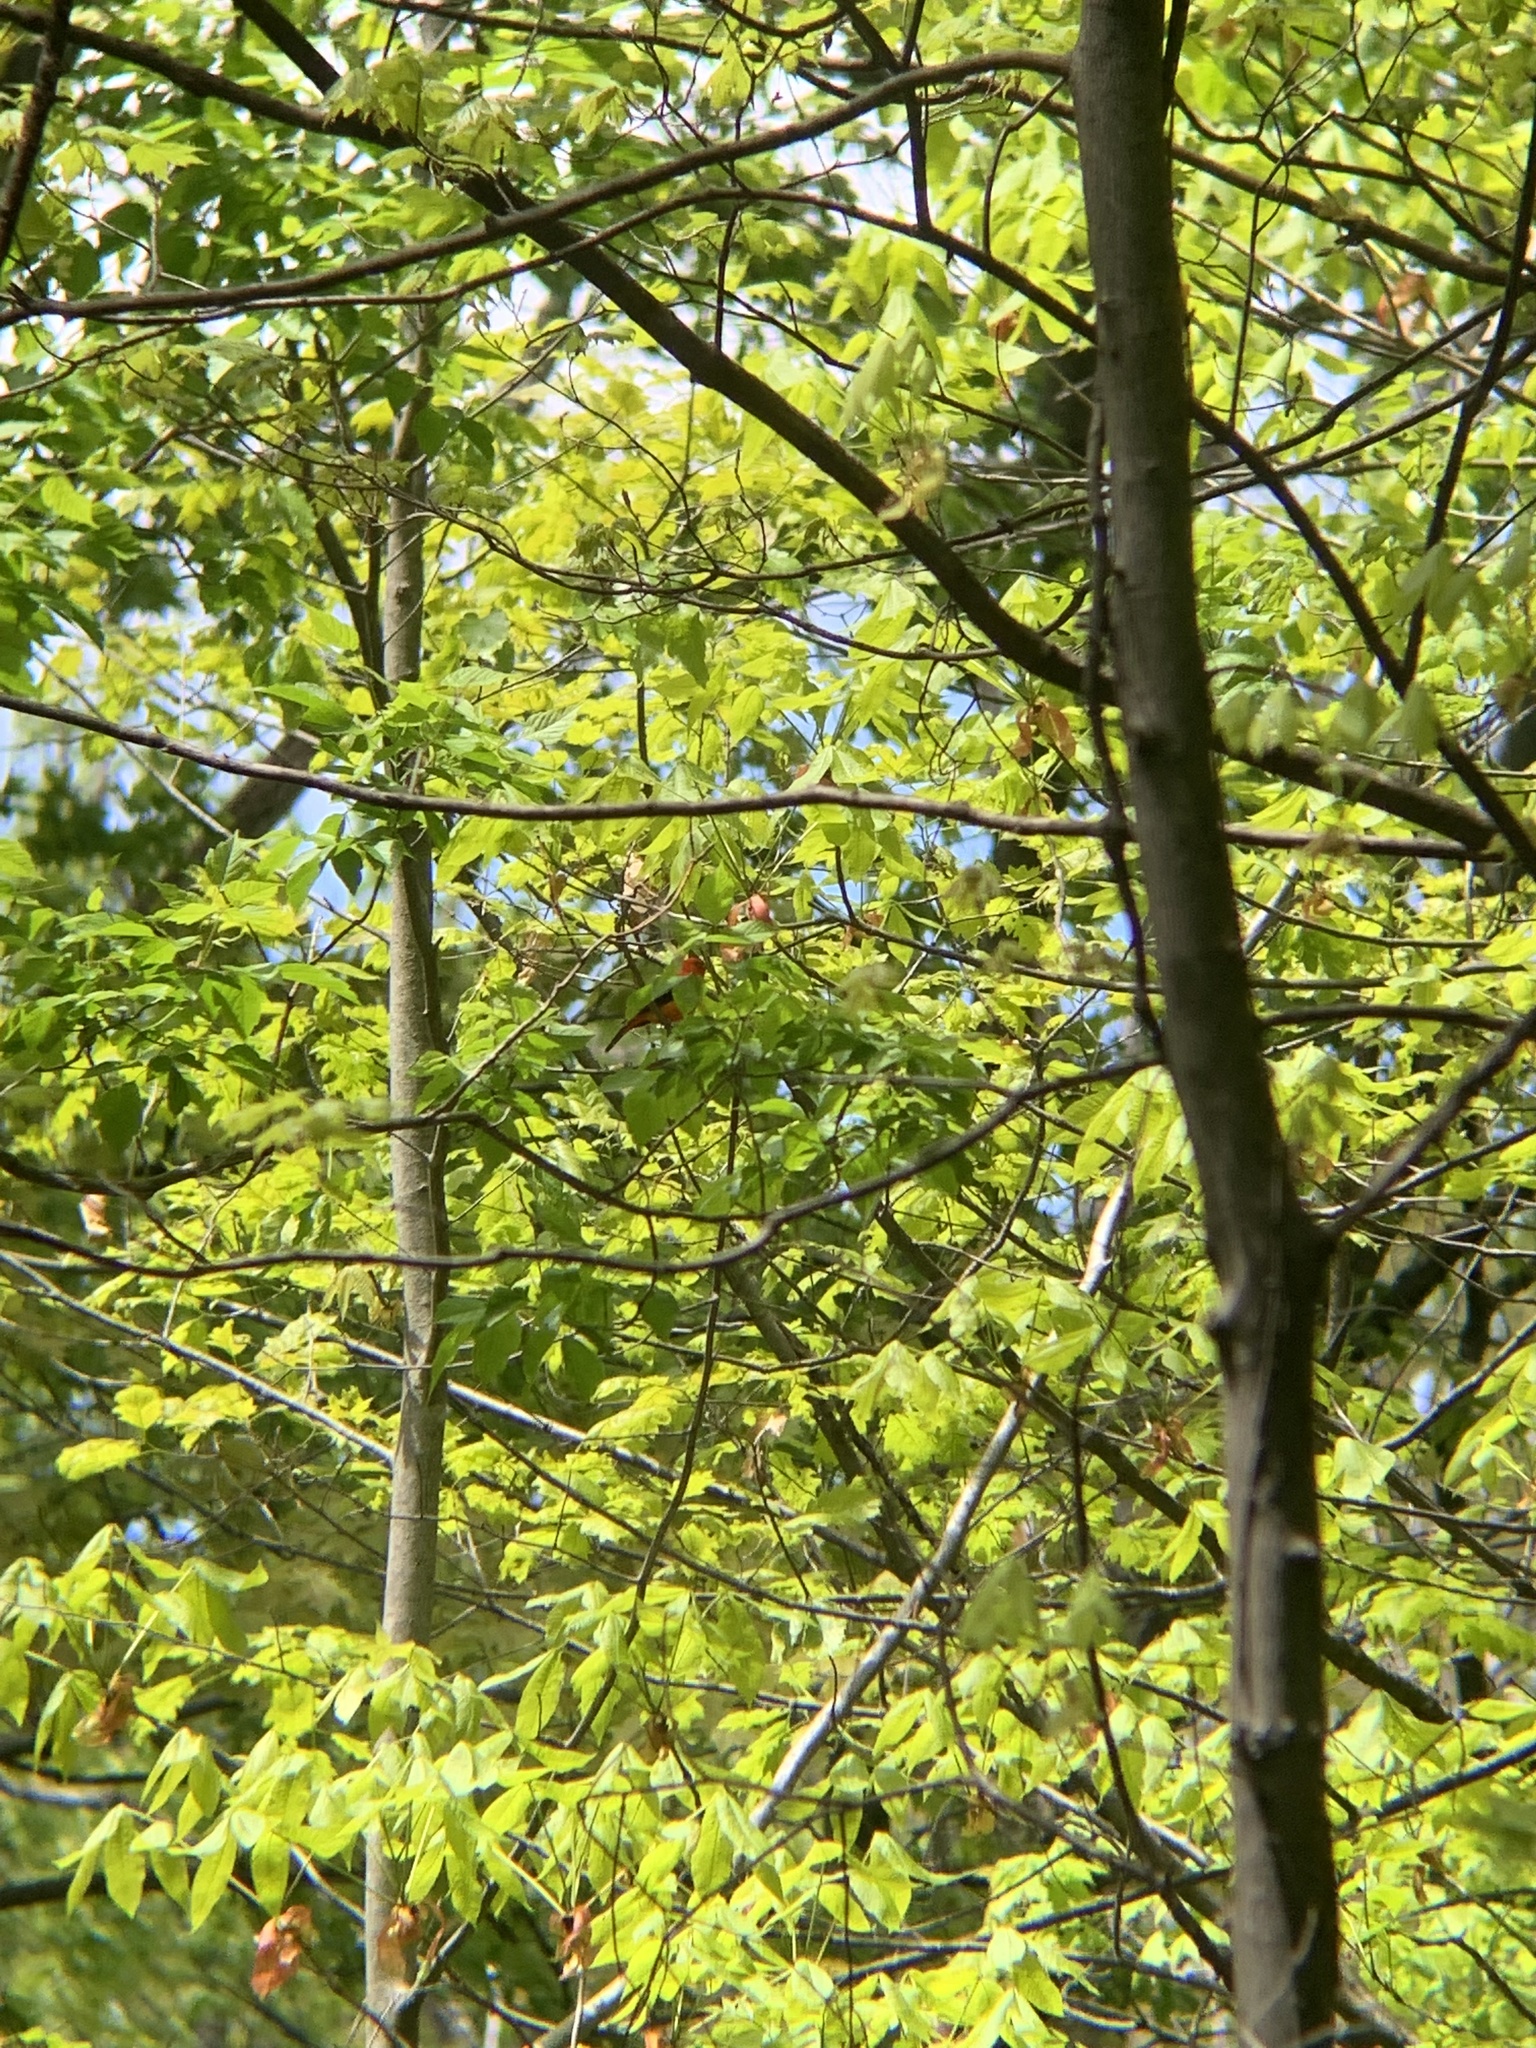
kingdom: Animalia
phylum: Chordata
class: Aves
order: Passeriformes
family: Cardinalidae
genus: Piranga
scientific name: Piranga olivacea
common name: Scarlet tanager
